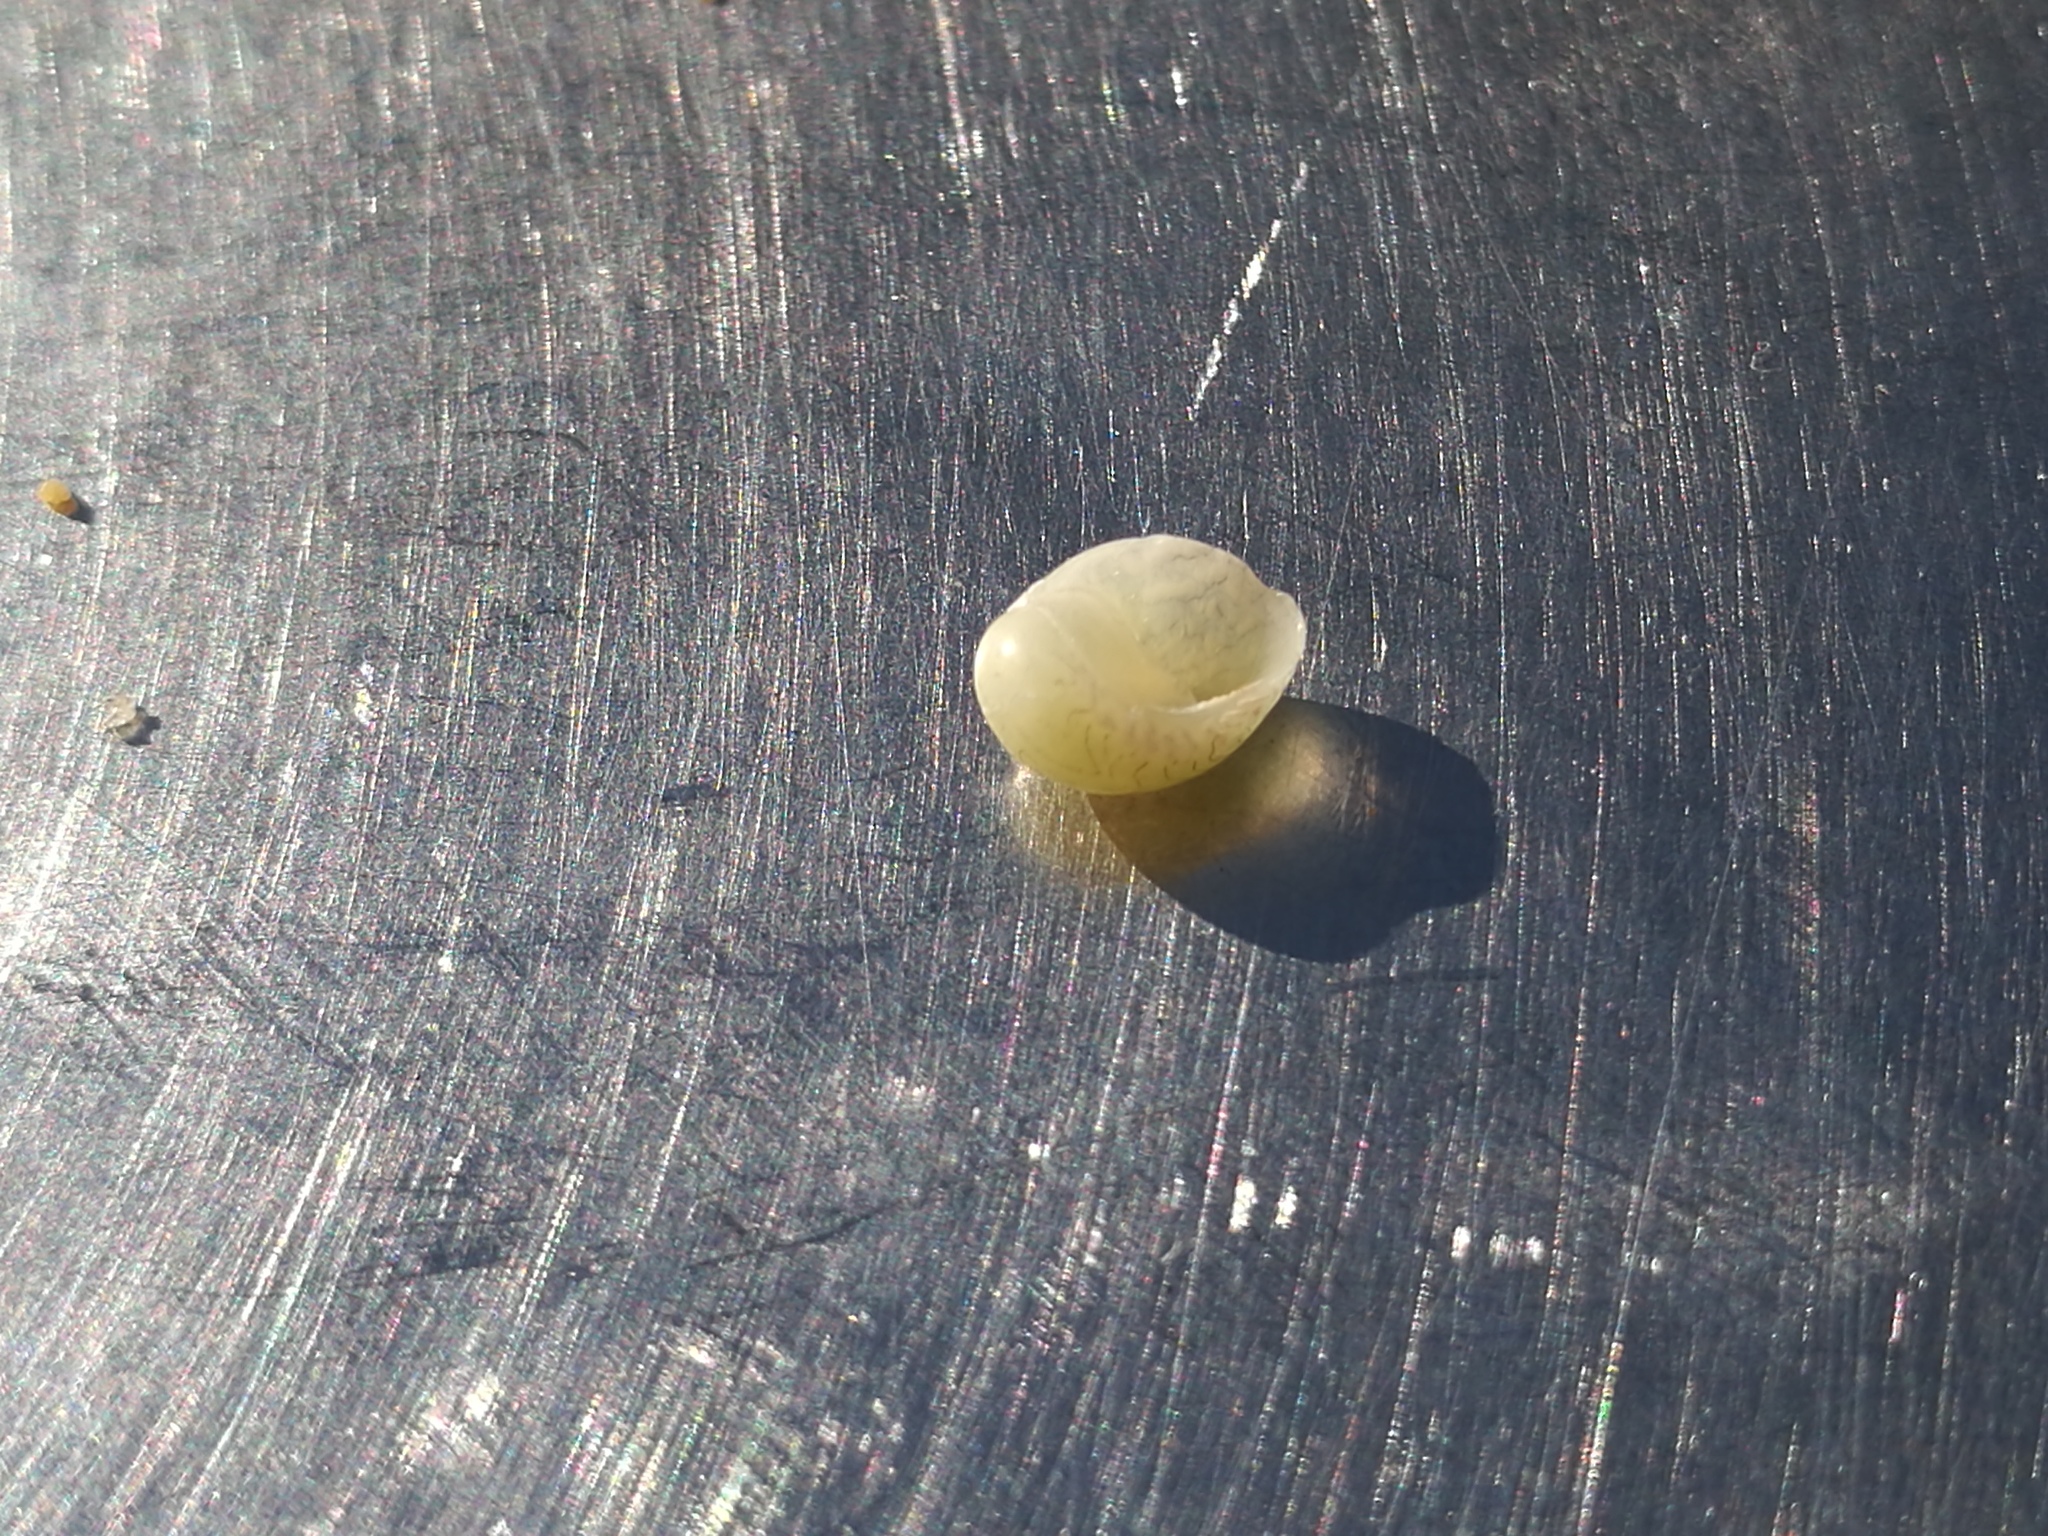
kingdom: Animalia
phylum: Mollusca
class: Gastropoda
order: Cycloneritida
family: Neritidae
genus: Smaragdia
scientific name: Smaragdia viridis
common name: Emerald nerite
